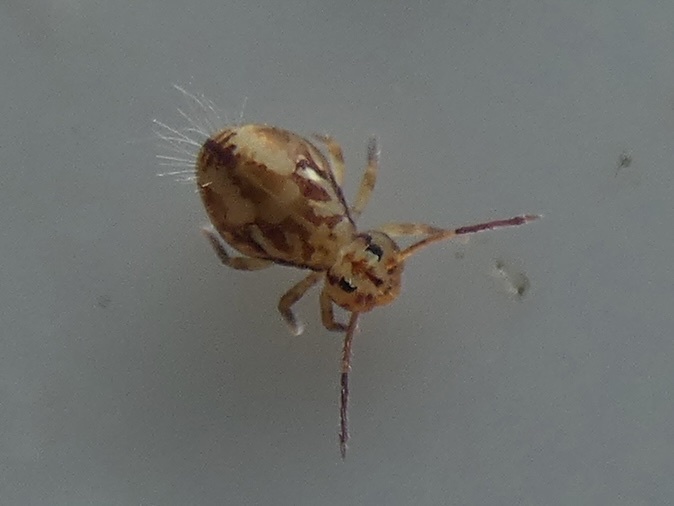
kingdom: Animalia
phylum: Arthropoda
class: Collembola
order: Symphypleona
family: Dicyrtomidae
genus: Dicyrtomina
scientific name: Dicyrtomina saundersi
